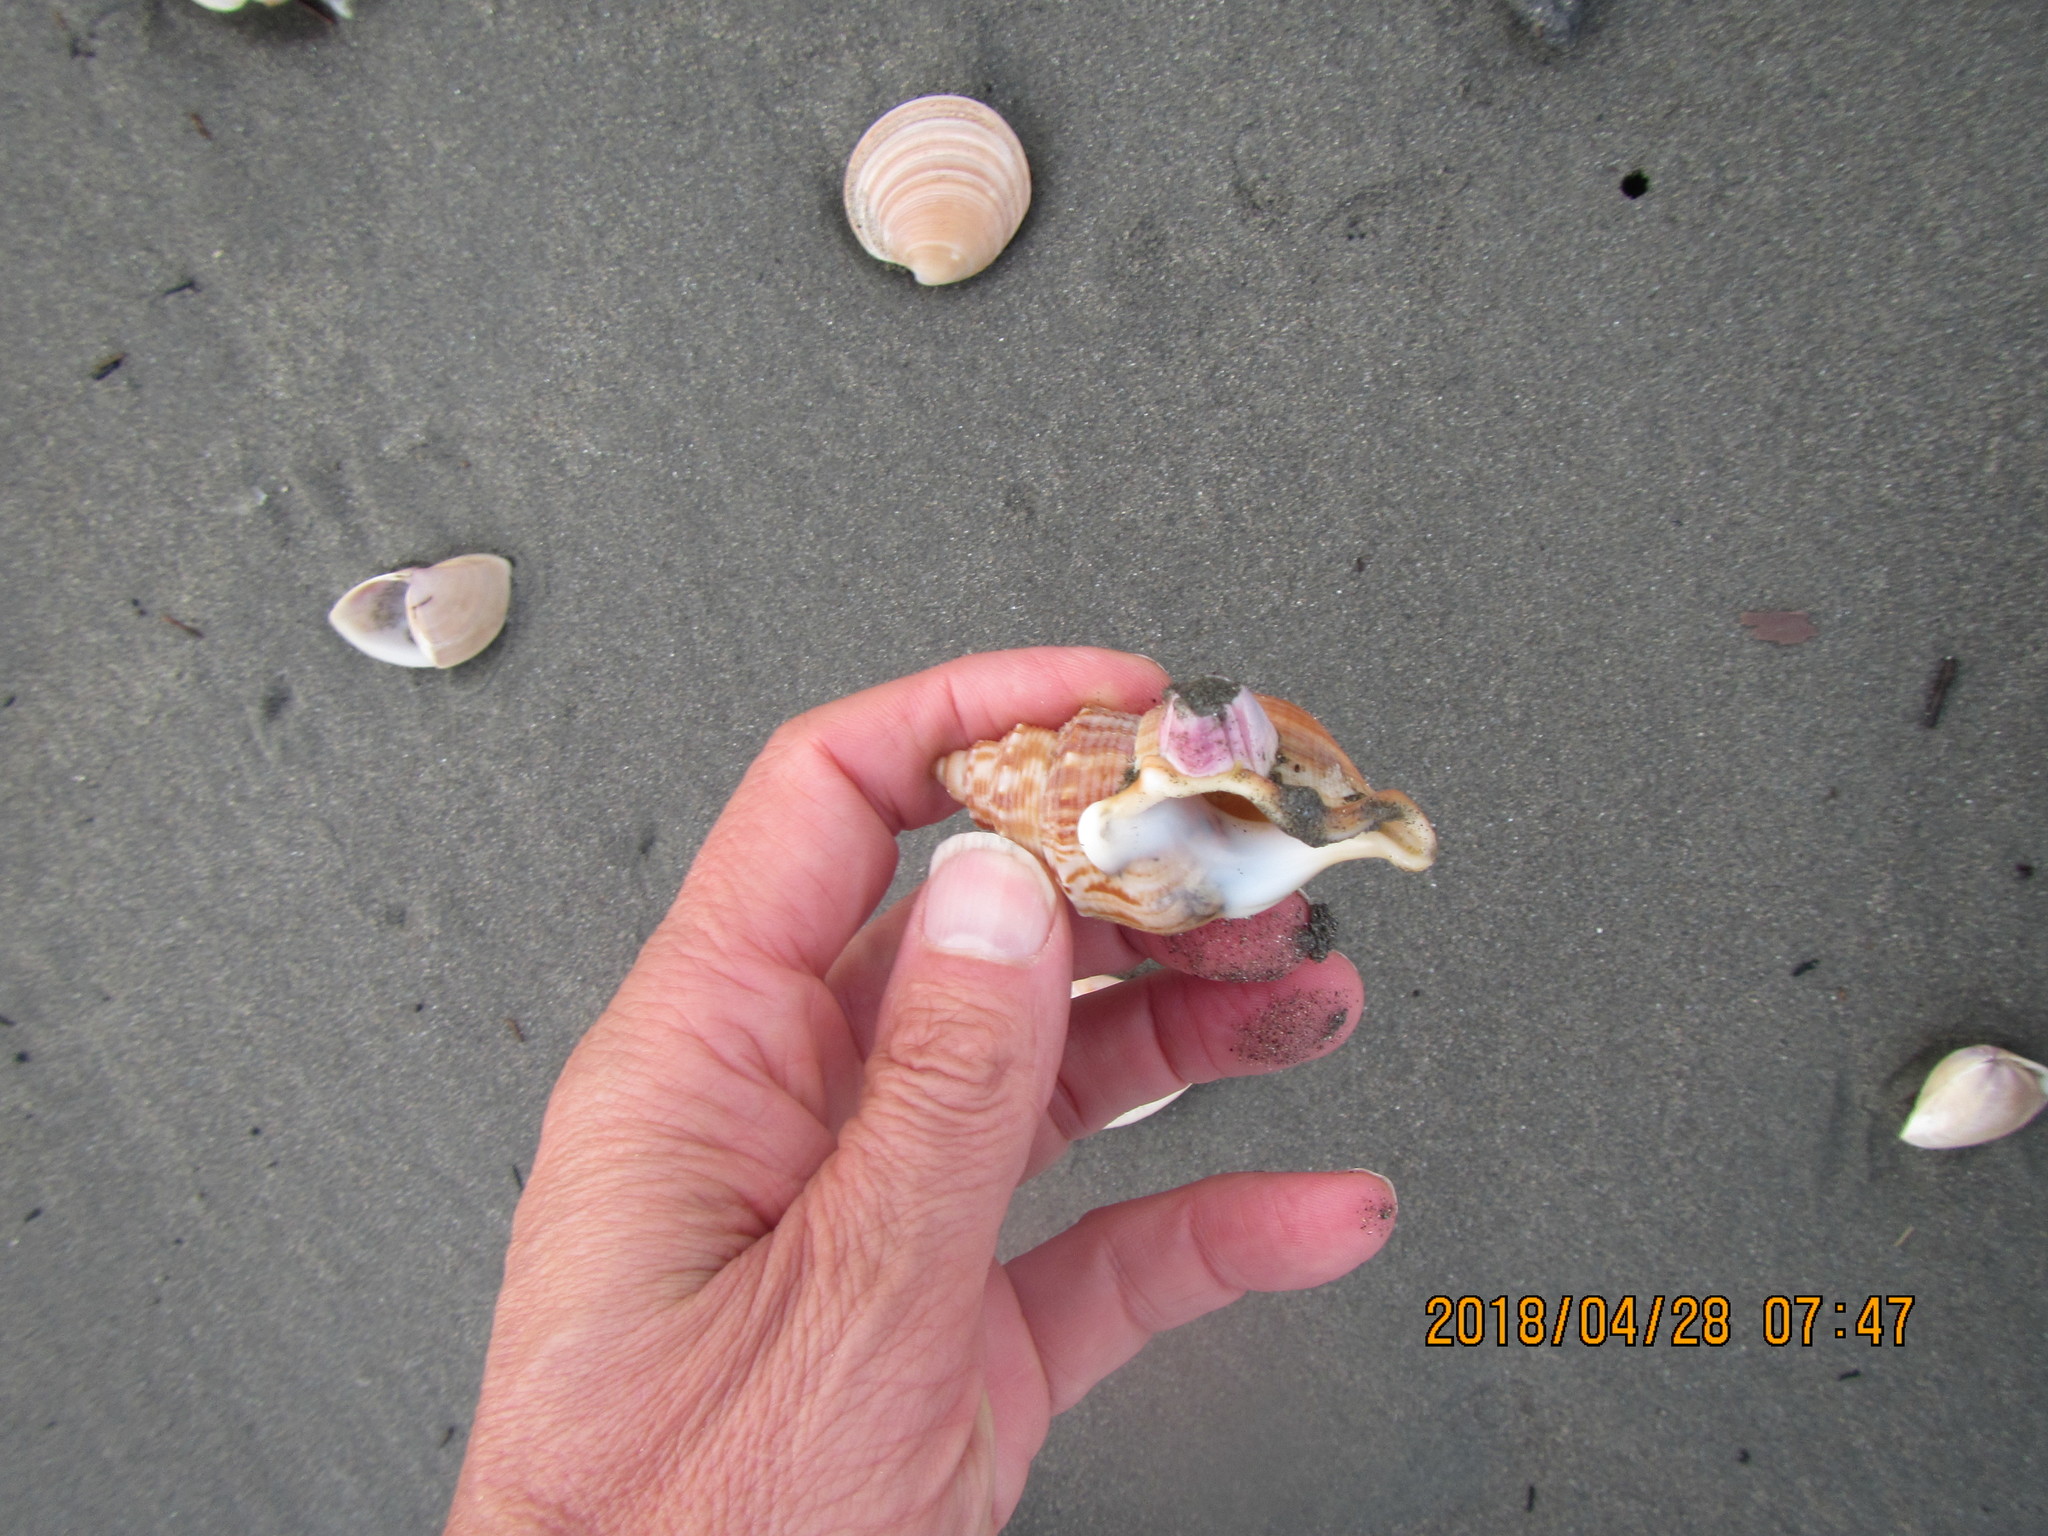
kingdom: Animalia
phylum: Arthropoda
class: Maxillopoda
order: Sessilia
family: Balanidae
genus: Notomegabalanus
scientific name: Notomegabalanus decorus
